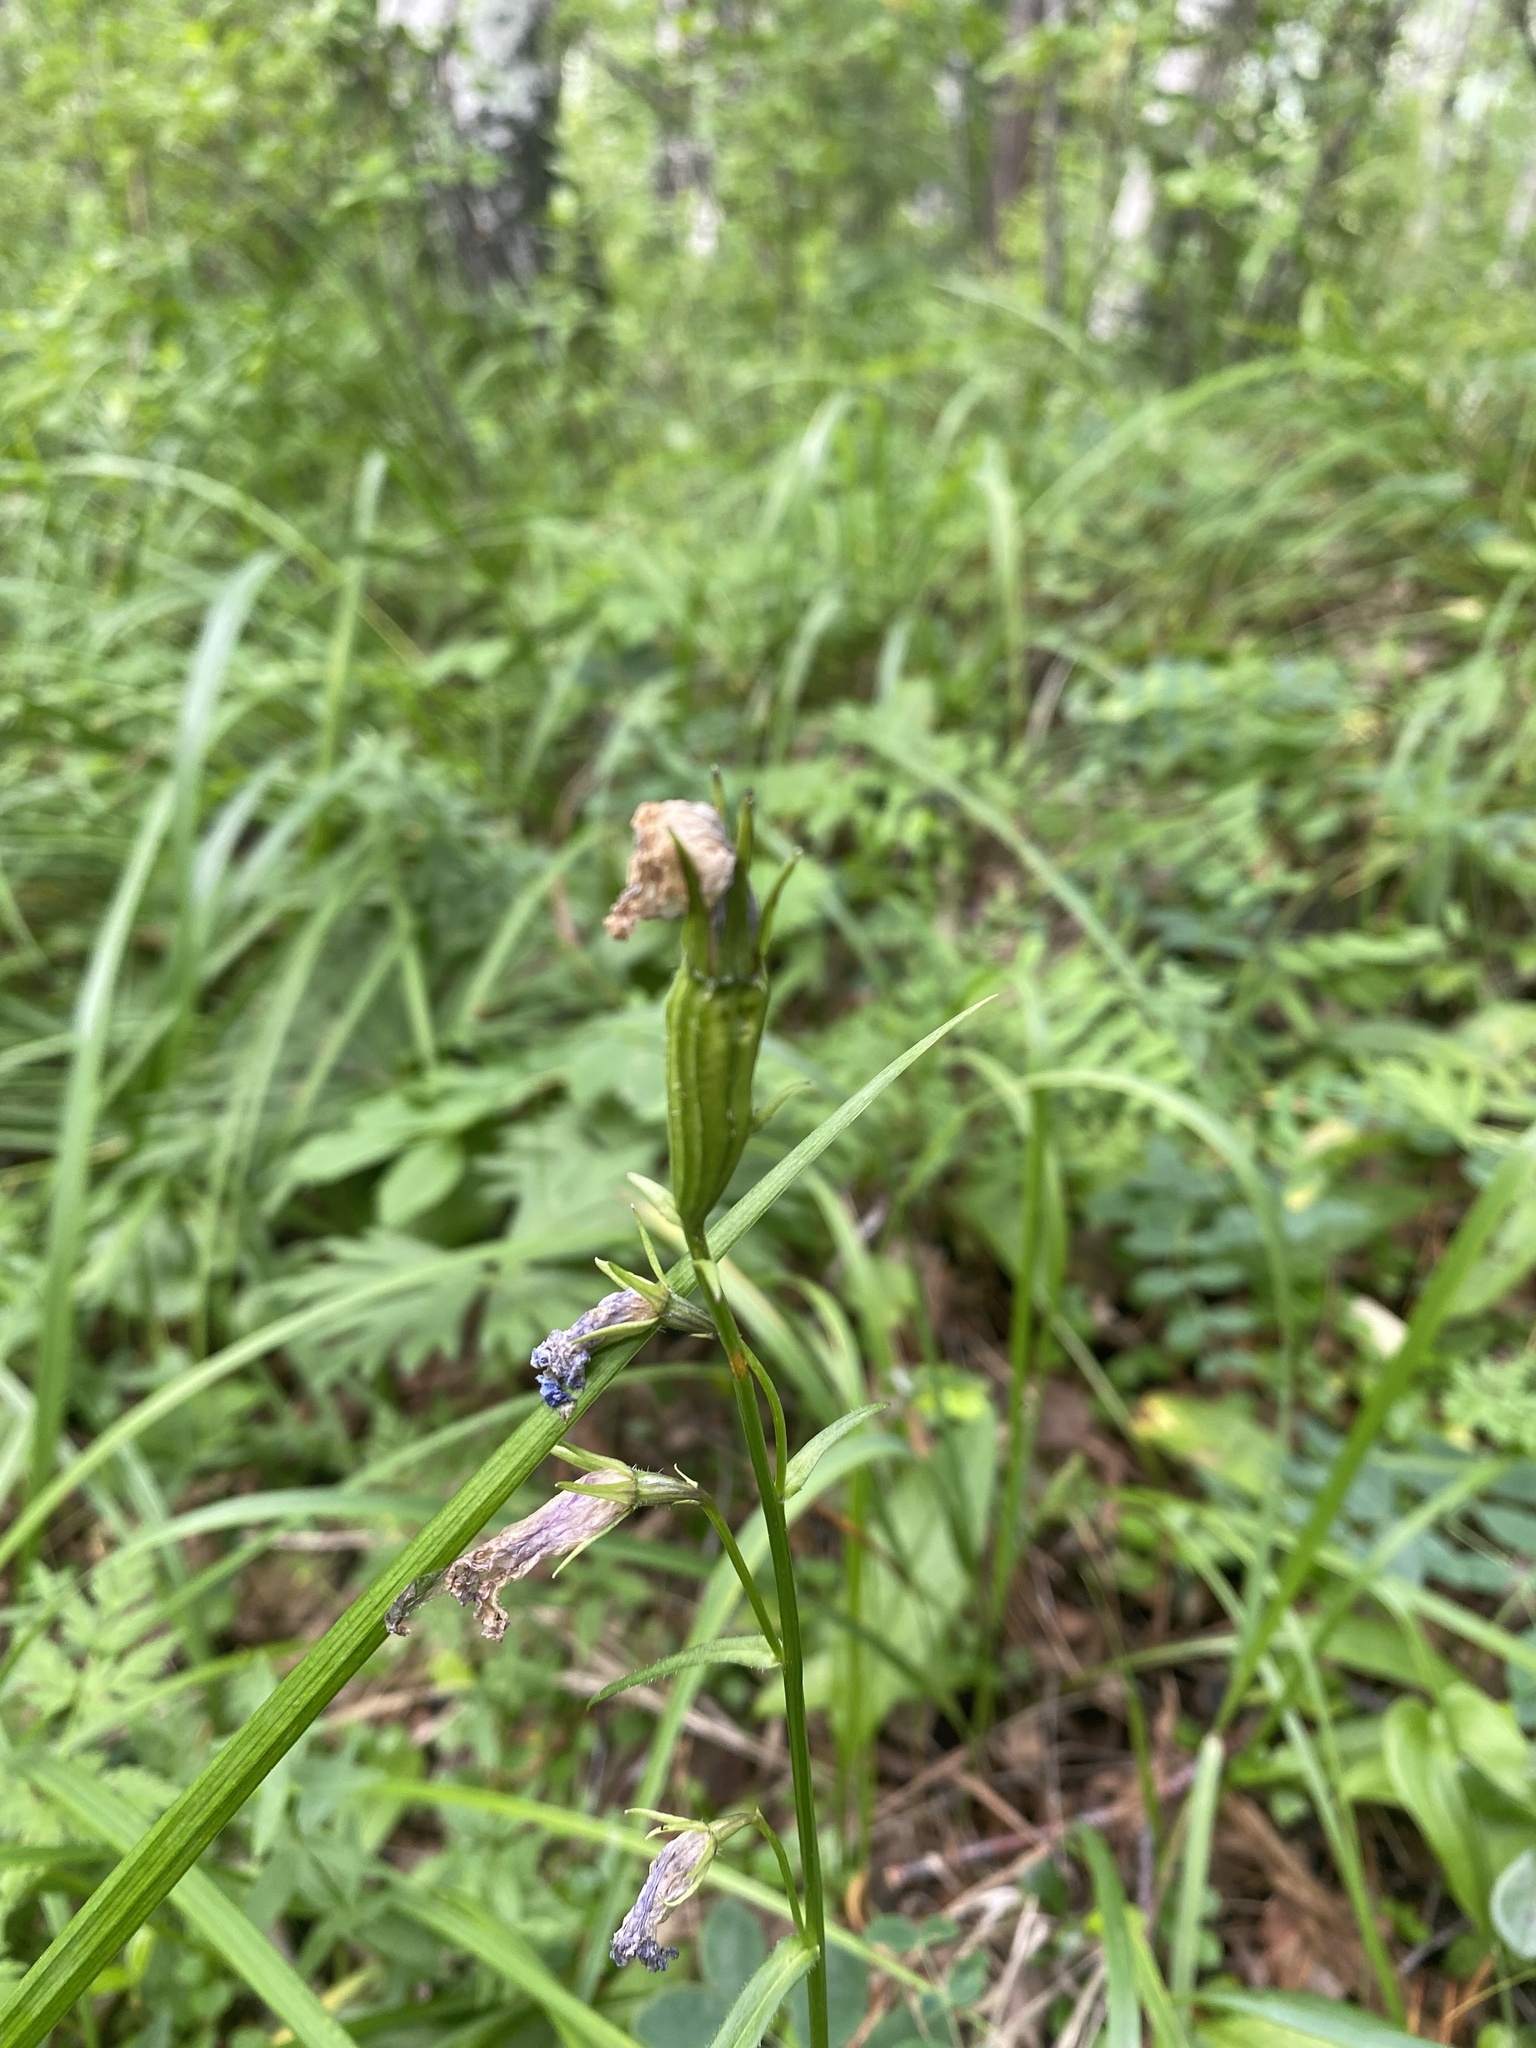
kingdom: Plantae
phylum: Tracheophyta
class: Magnoliopsida
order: Asterales
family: Campanulaceae
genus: Campanula
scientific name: Campanula stevenii
